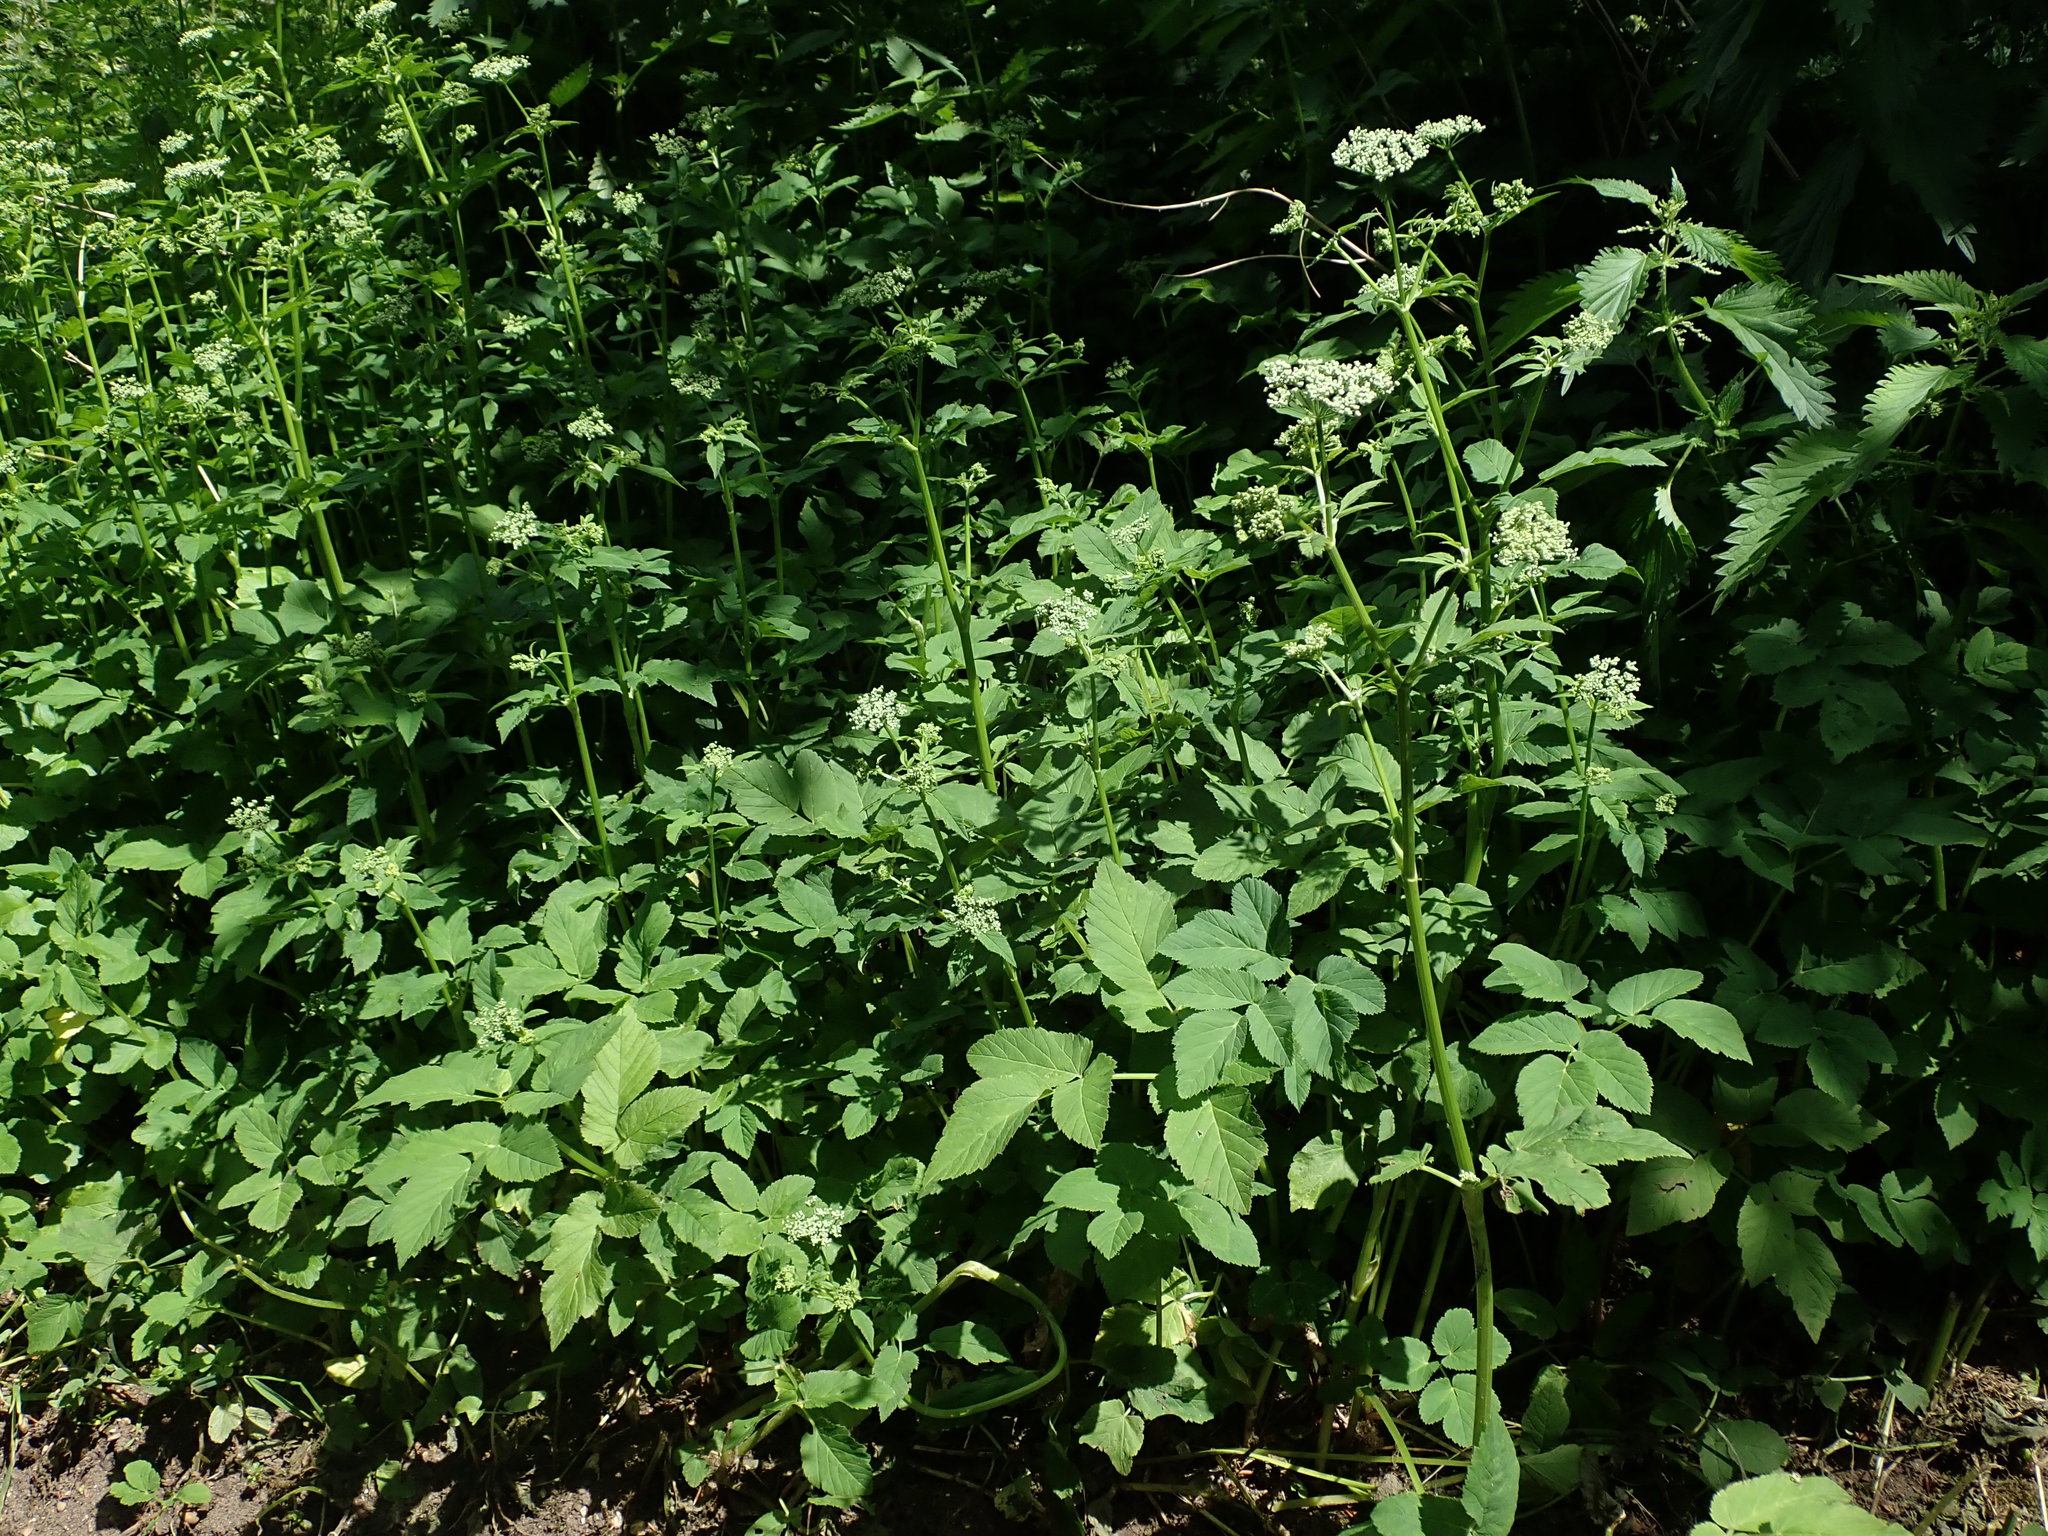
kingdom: Plantae
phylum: Tracheophyta
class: Magnoliopsida
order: Apiales
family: Apiaceae
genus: Aegopodium
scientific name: Aegopodium podagraria
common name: Ground-elder
